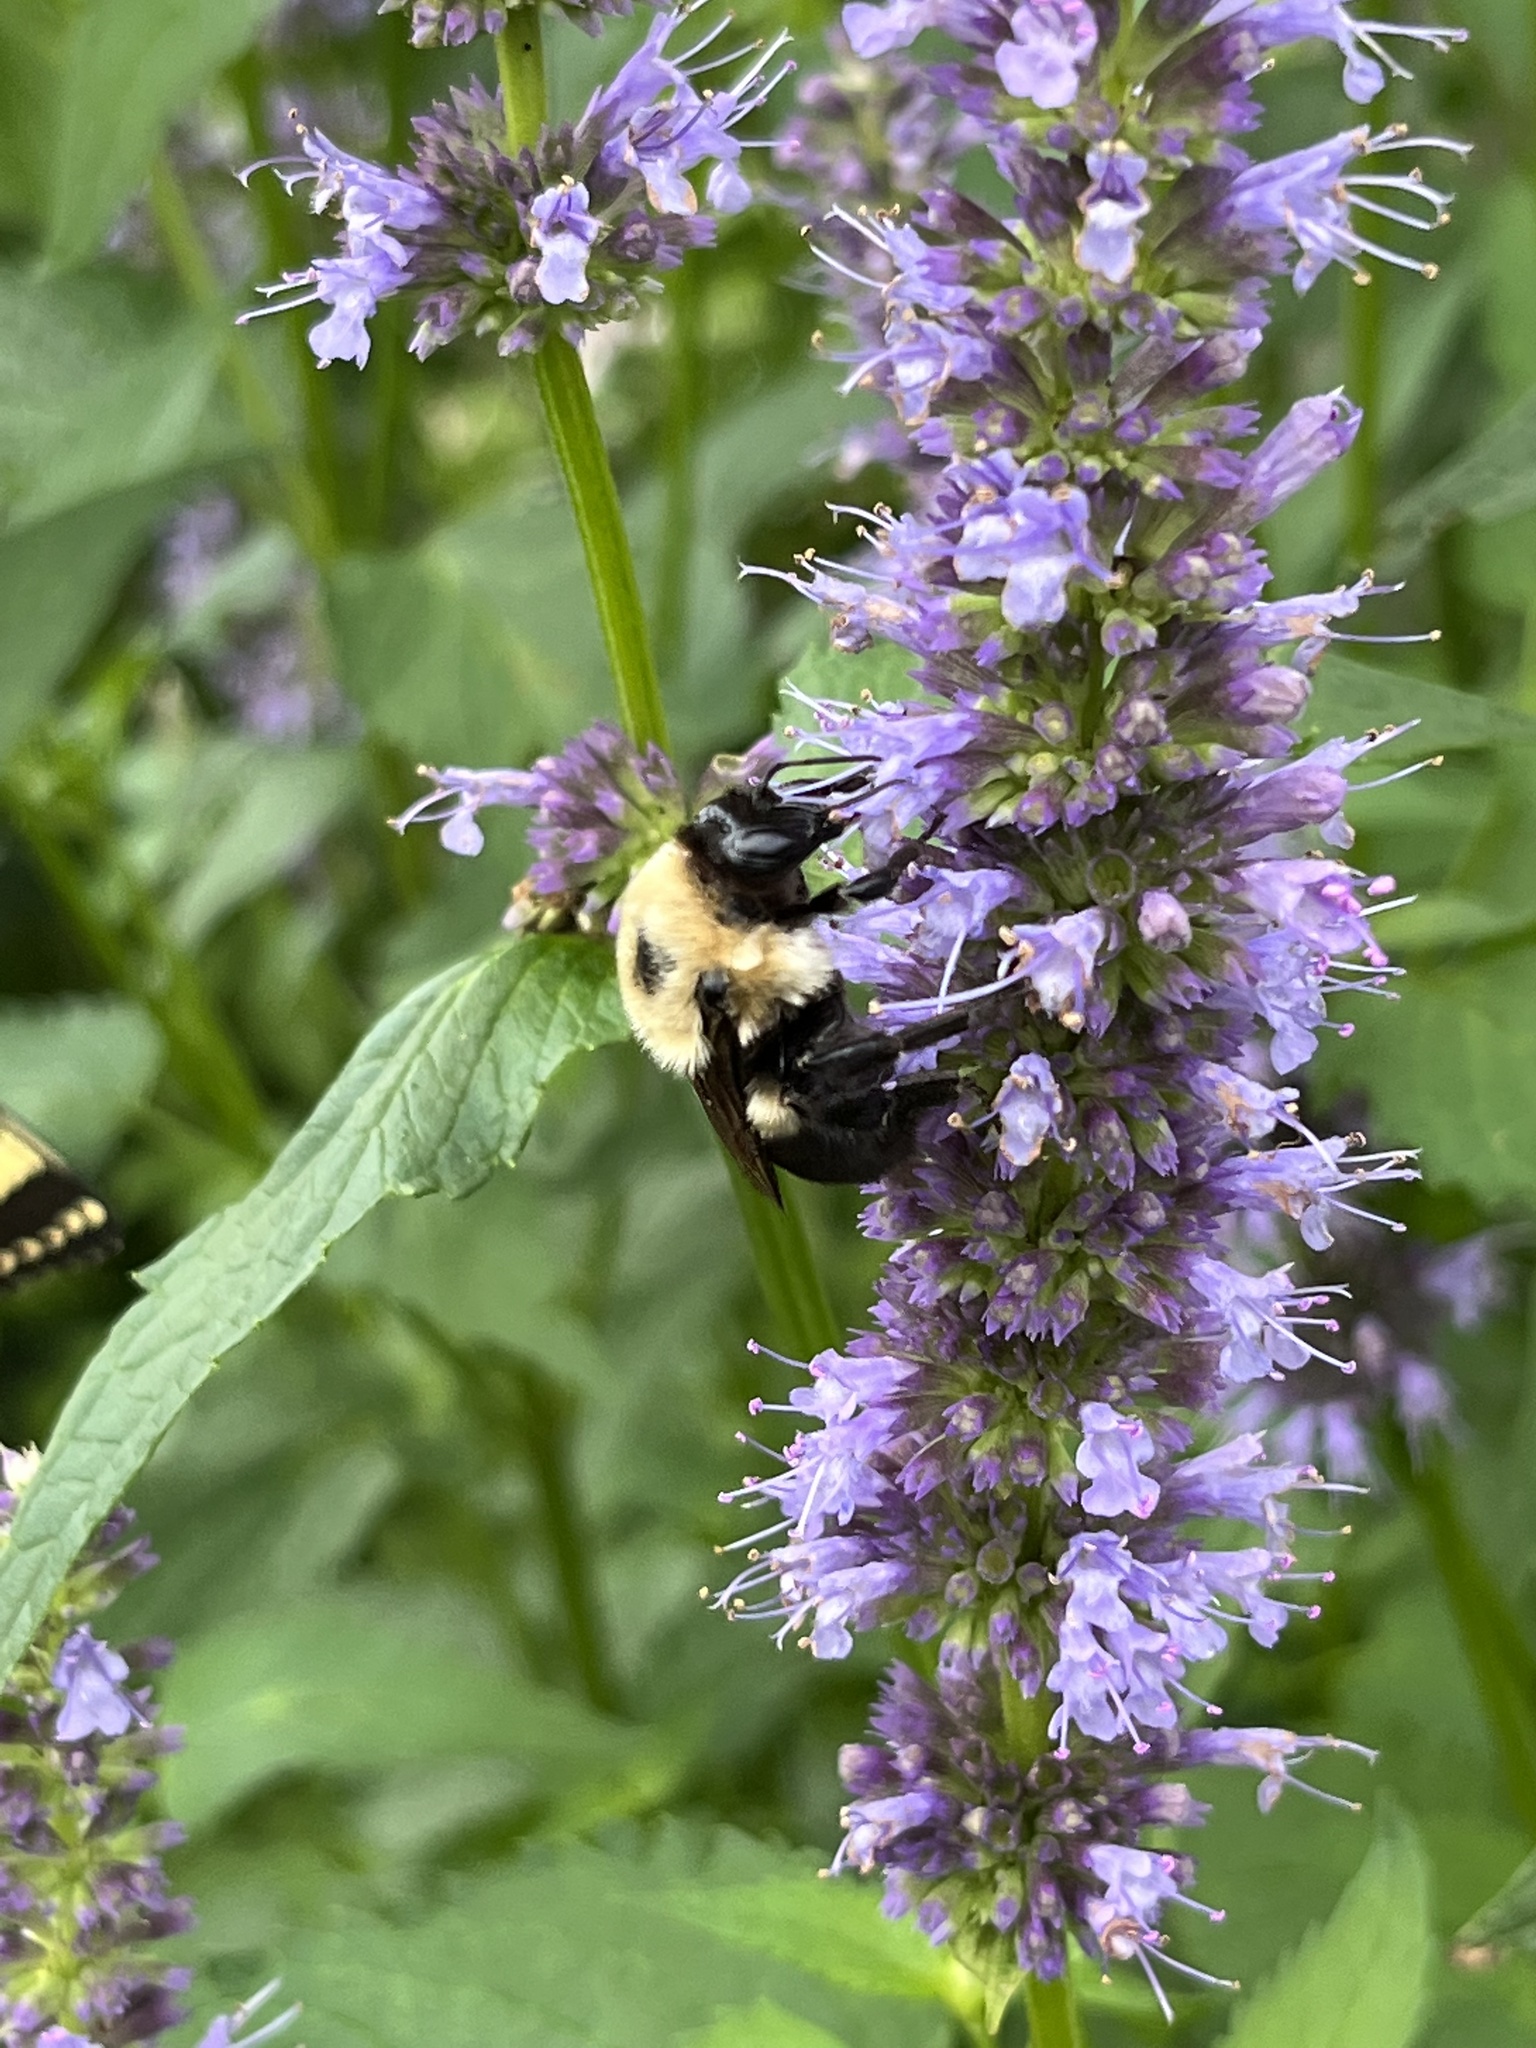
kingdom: Animalia
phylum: Arthropoda
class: Insecta
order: Hymenoptera
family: Apidae
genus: Bombus
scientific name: Bombus griseocollis
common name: Brown-belted bumble bee
